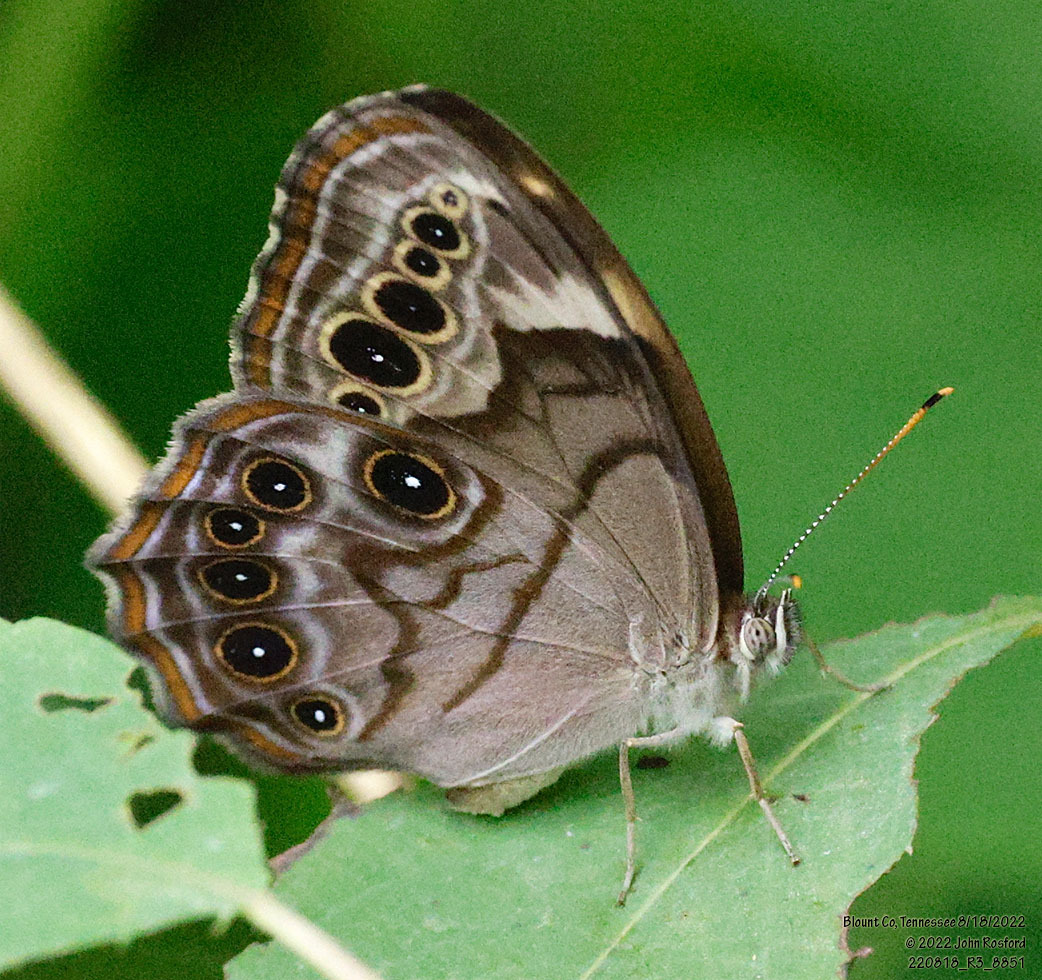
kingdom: Animalia
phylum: Arthropoda
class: Insecta
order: Lepidoptera
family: Nymphalidae
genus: Lethe
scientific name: Lethe anthedon
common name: Northern pearly-eye
